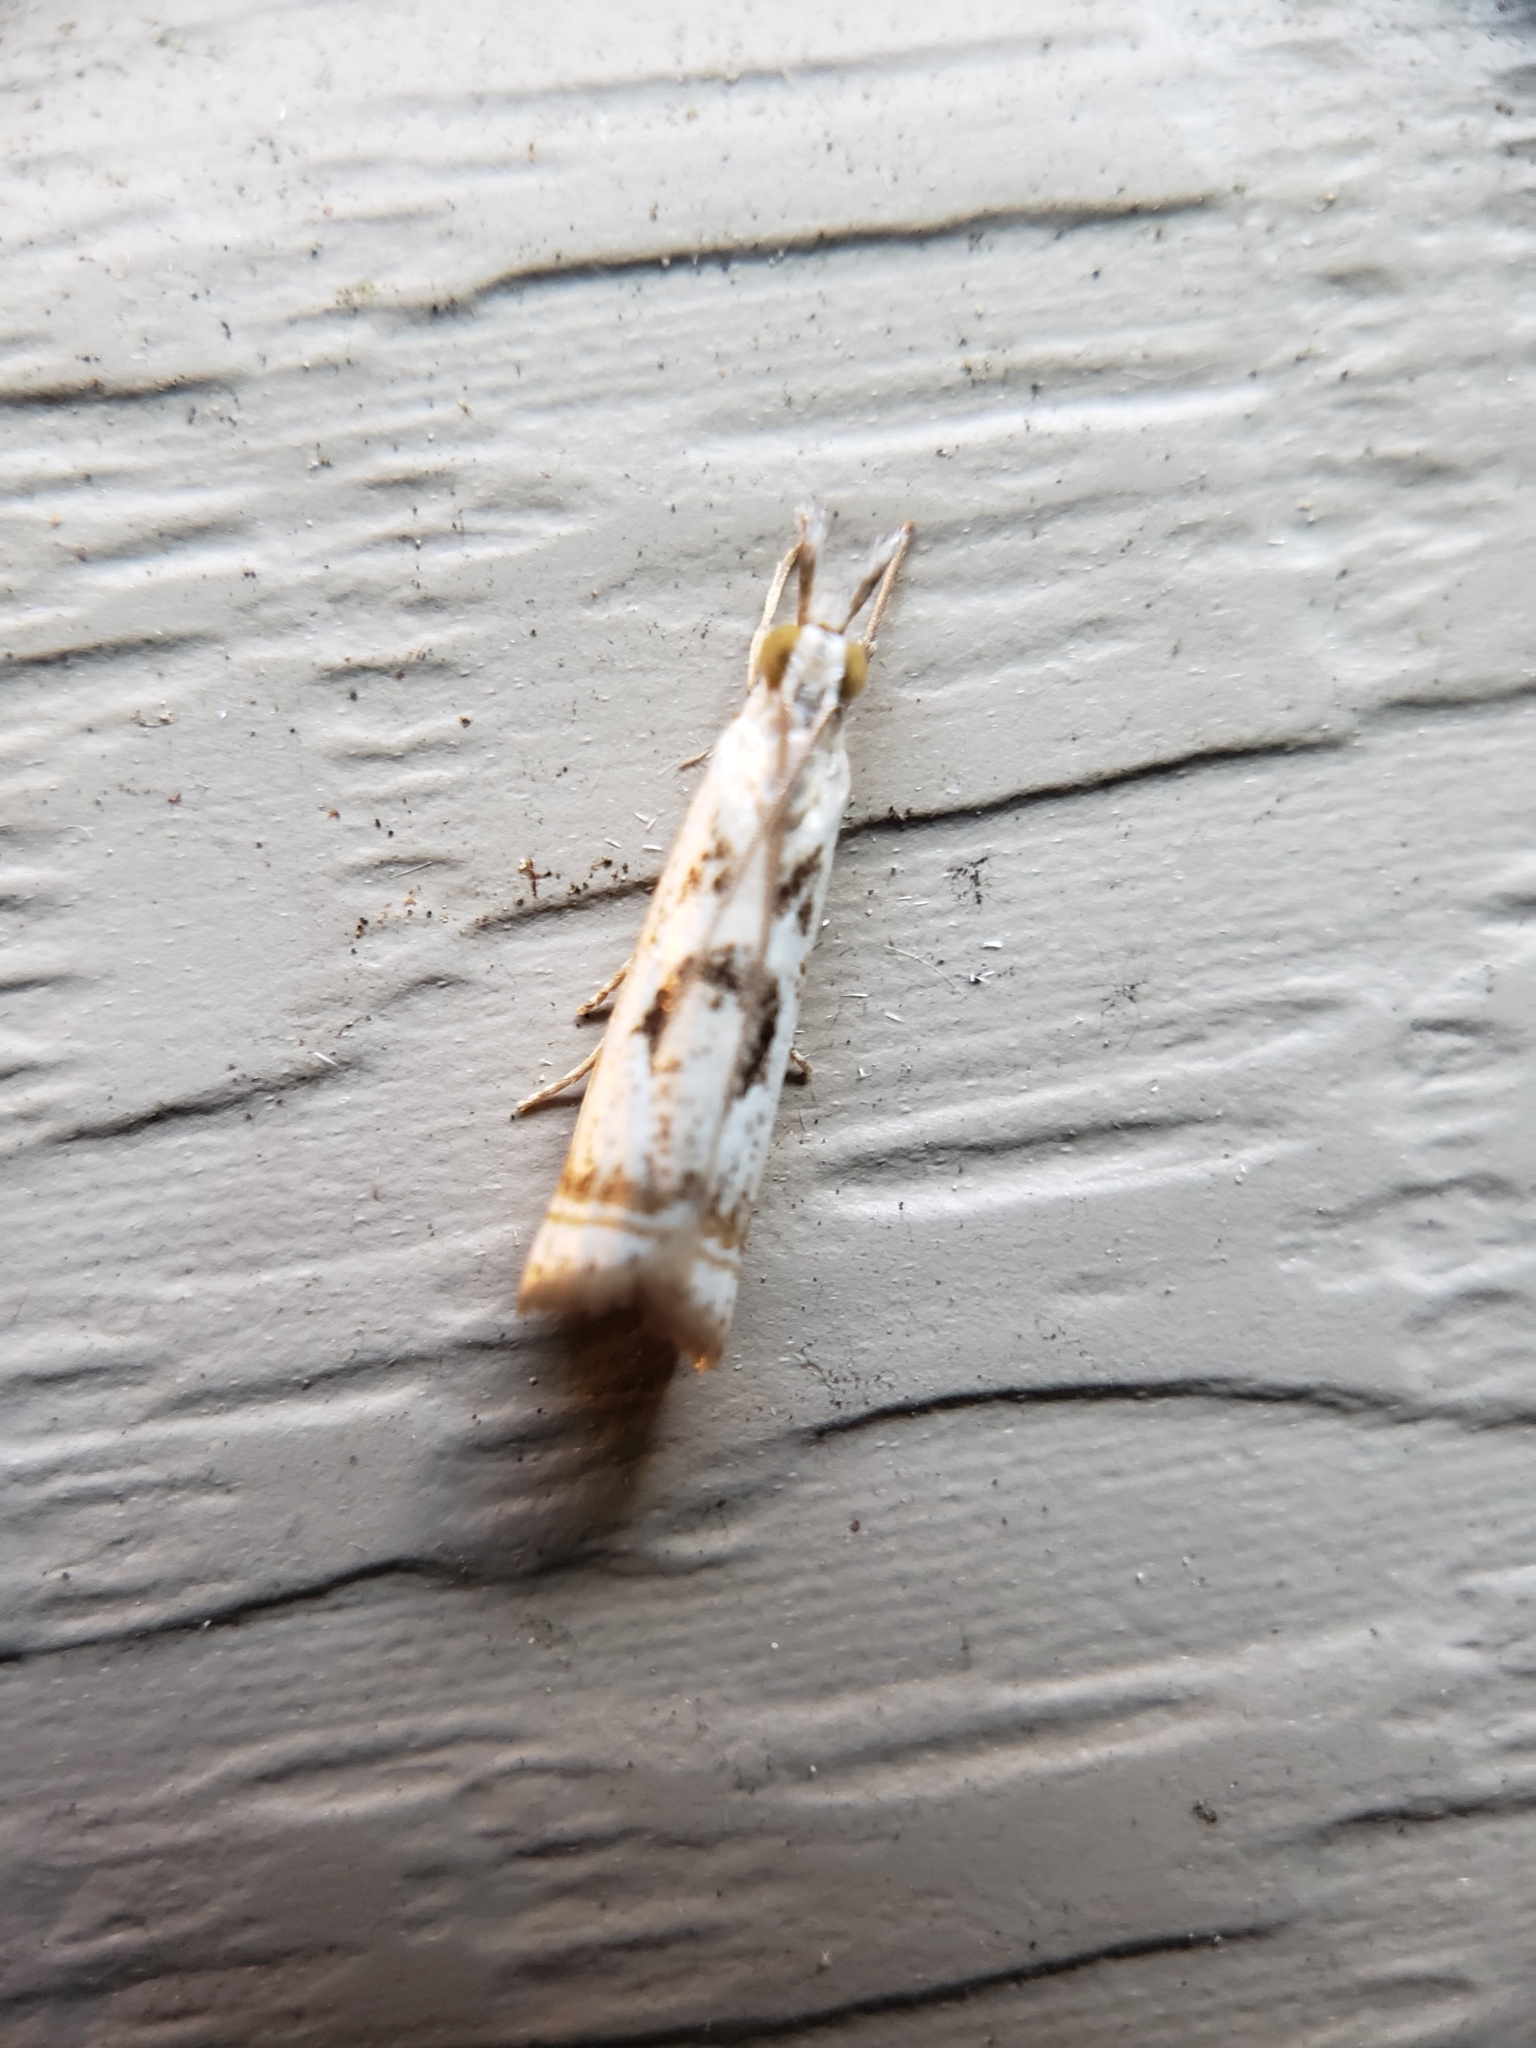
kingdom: Animalia
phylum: Arthropoda
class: Insecta
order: Lepidoptera
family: Crambidae
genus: Microcrambus
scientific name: Microcrambus elegans
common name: Elegant grass-veneer
